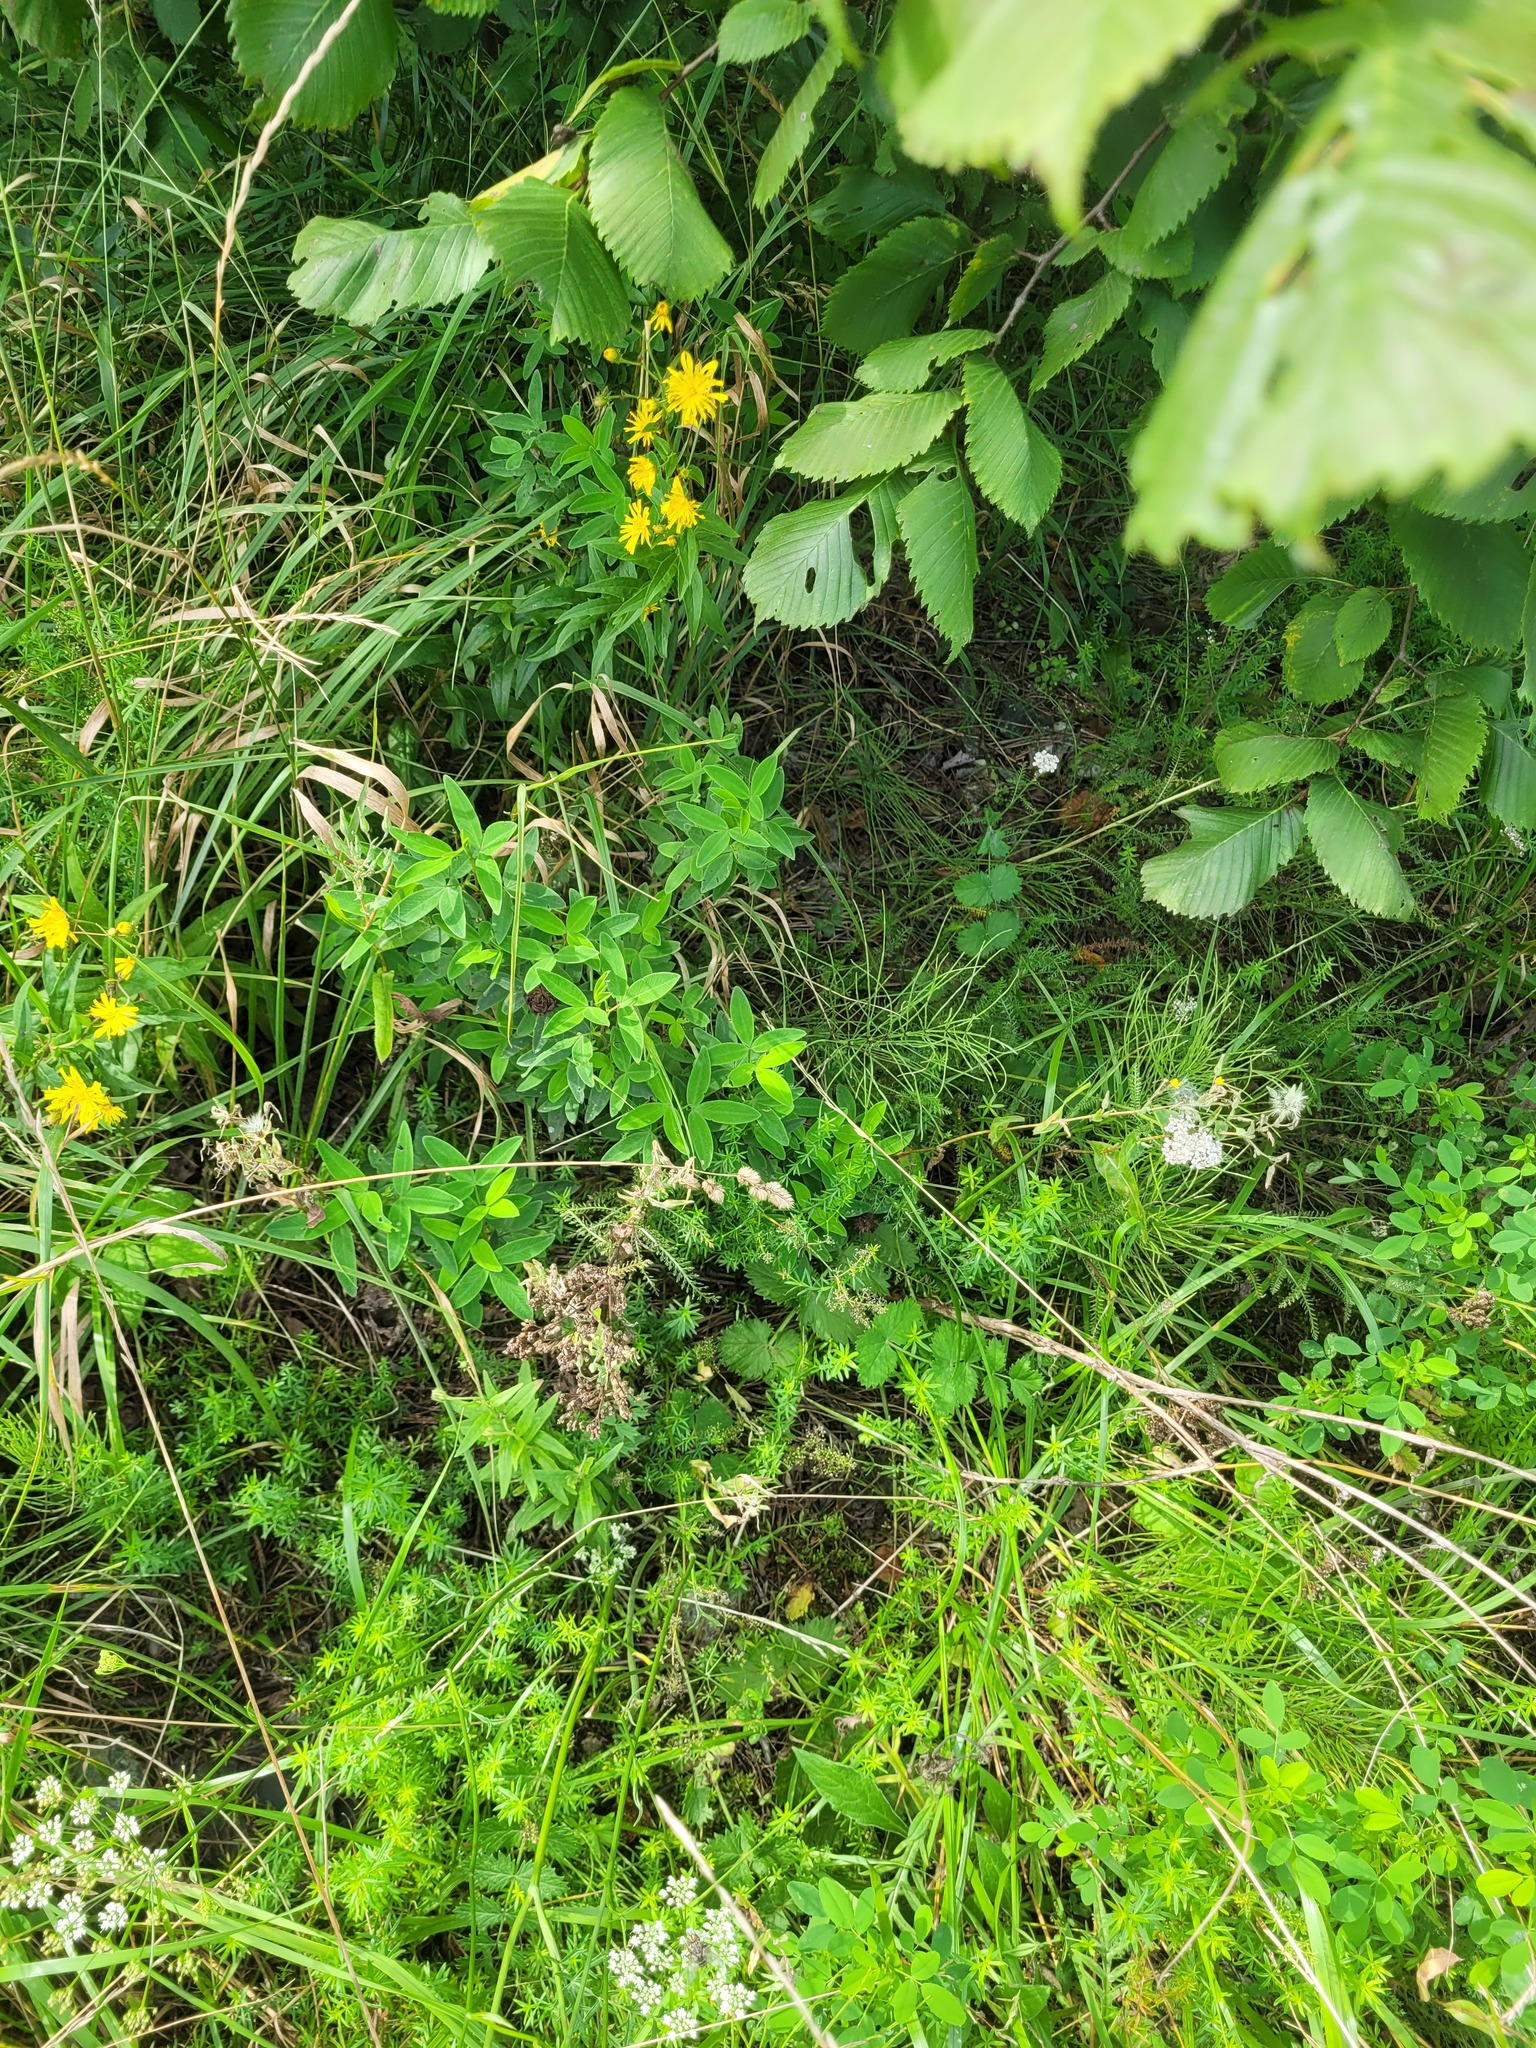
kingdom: Plantae
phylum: Tracheophyta
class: Liliopsida
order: Poales
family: Poaceae
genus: Dactylis
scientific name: Dactylis glomerata
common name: Orchardgrass
